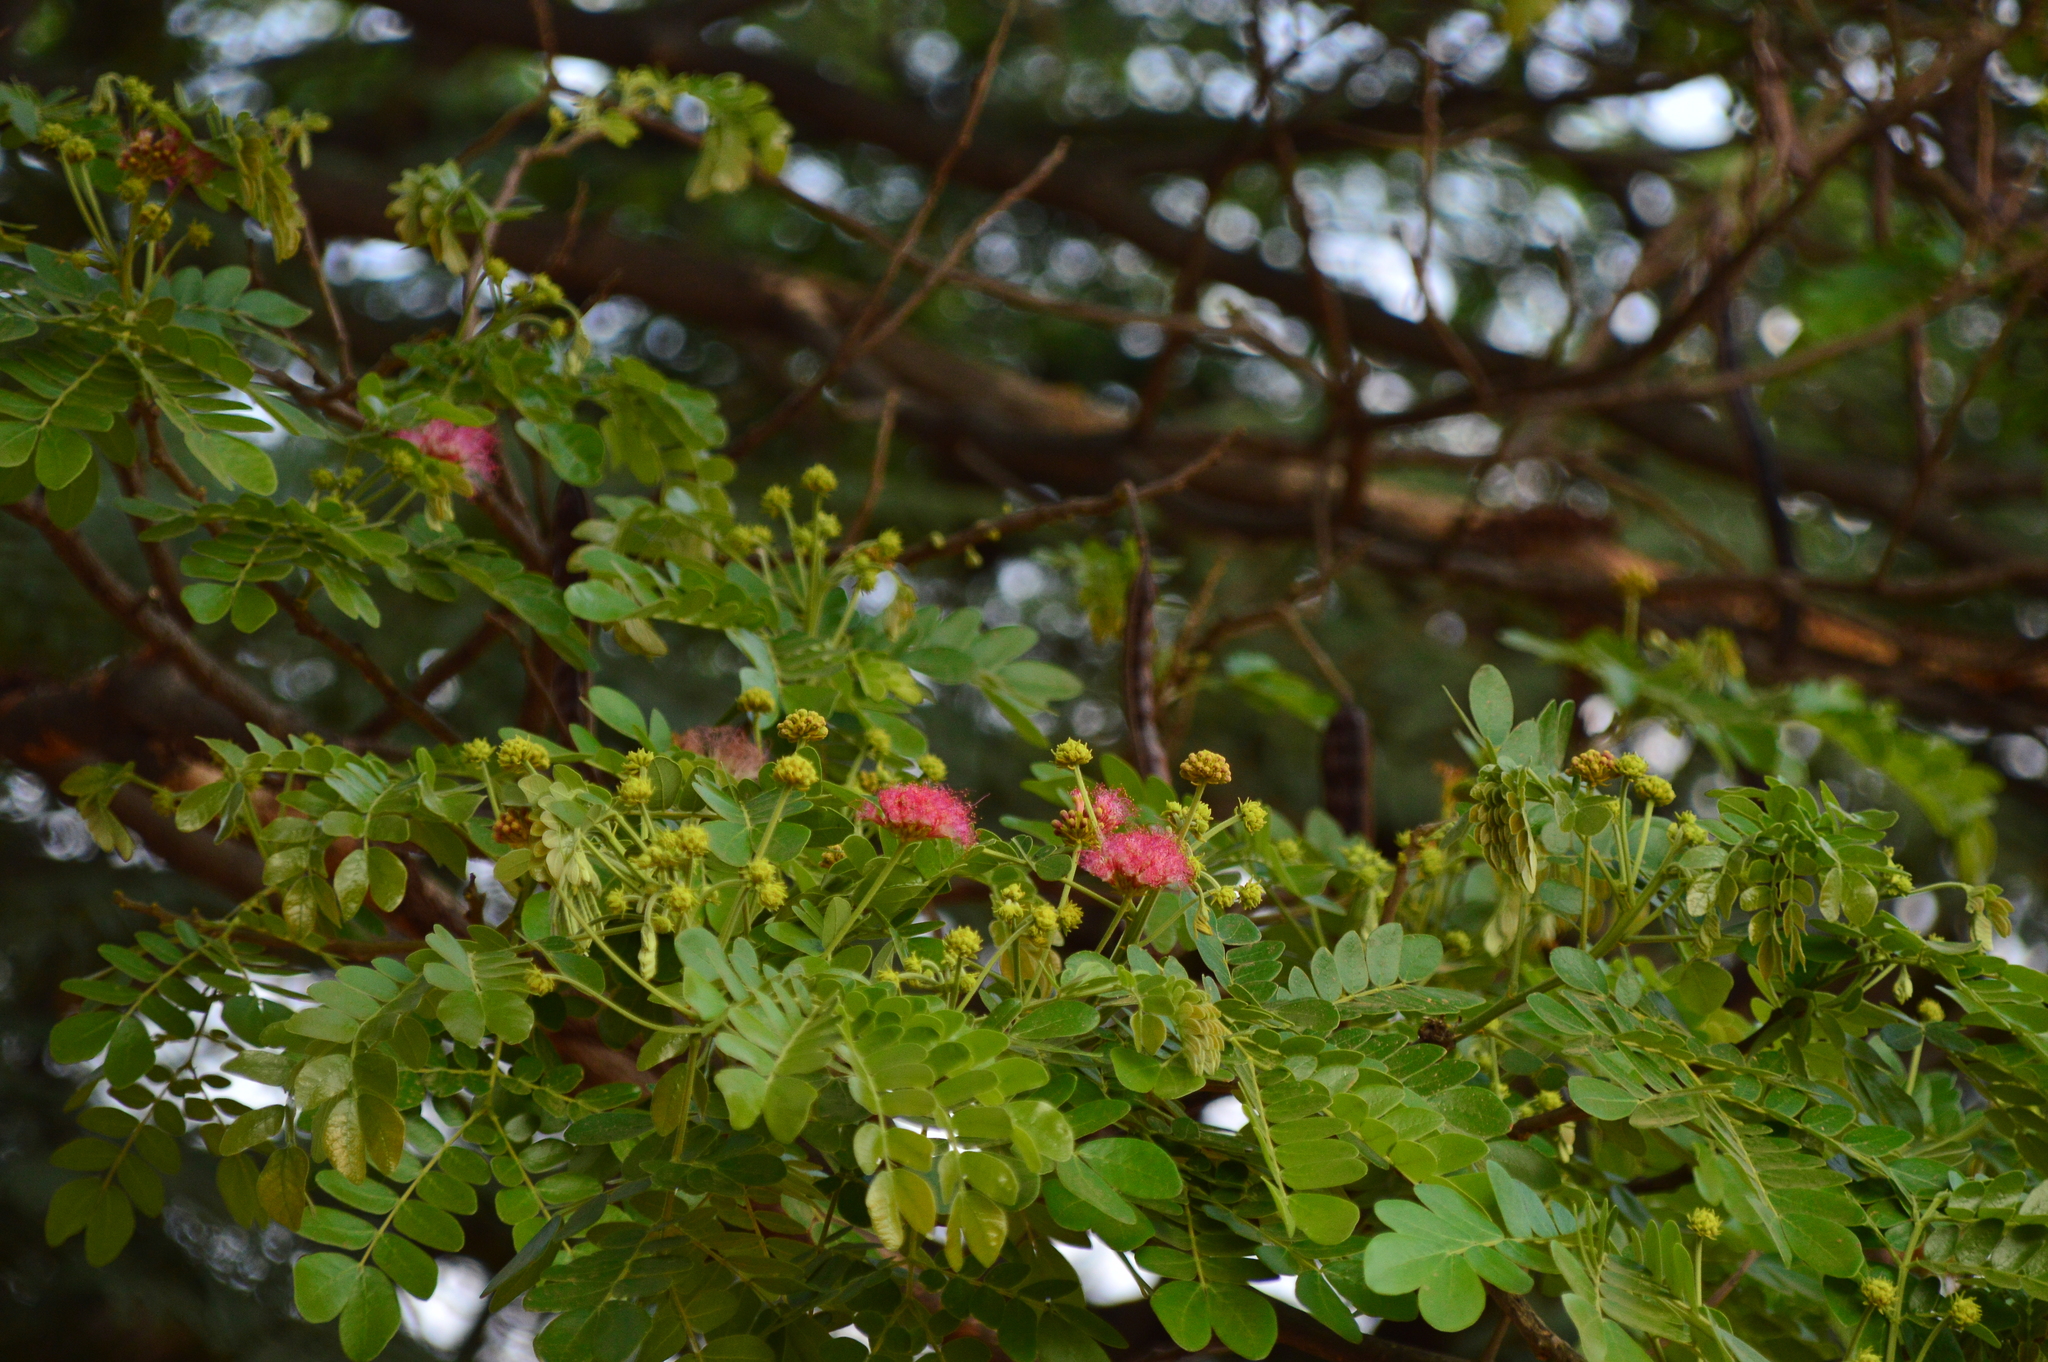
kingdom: Plantae
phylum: Tracheophyta
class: Magnoliopsida
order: Fabales
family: Fabaceae
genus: Samanea
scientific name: Samanea saman
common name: Raintree
